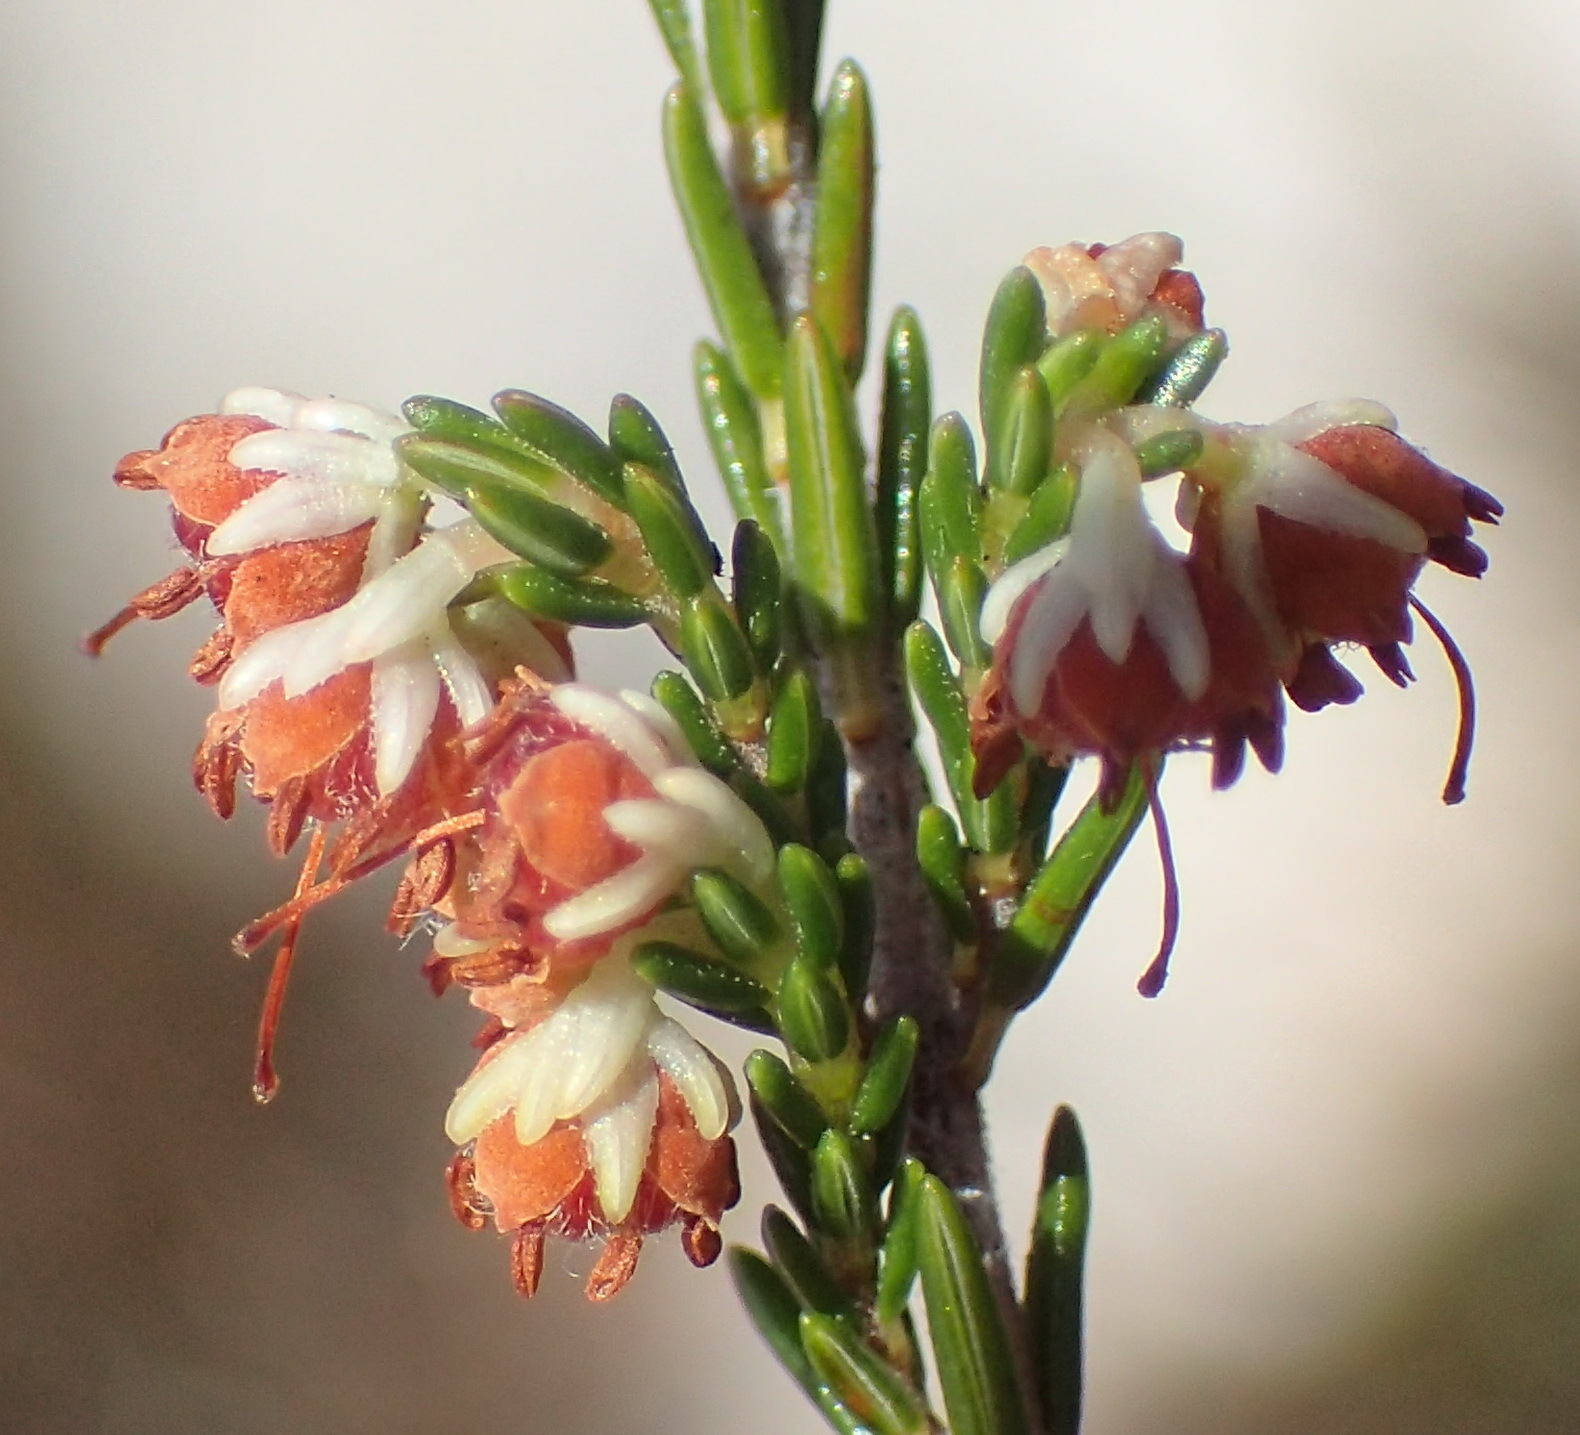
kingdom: Plantae
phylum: Tracheophyta
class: Magnoliopsida
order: Ericales
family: Ericaceae
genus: Erica
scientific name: Erica zwartbergensis
